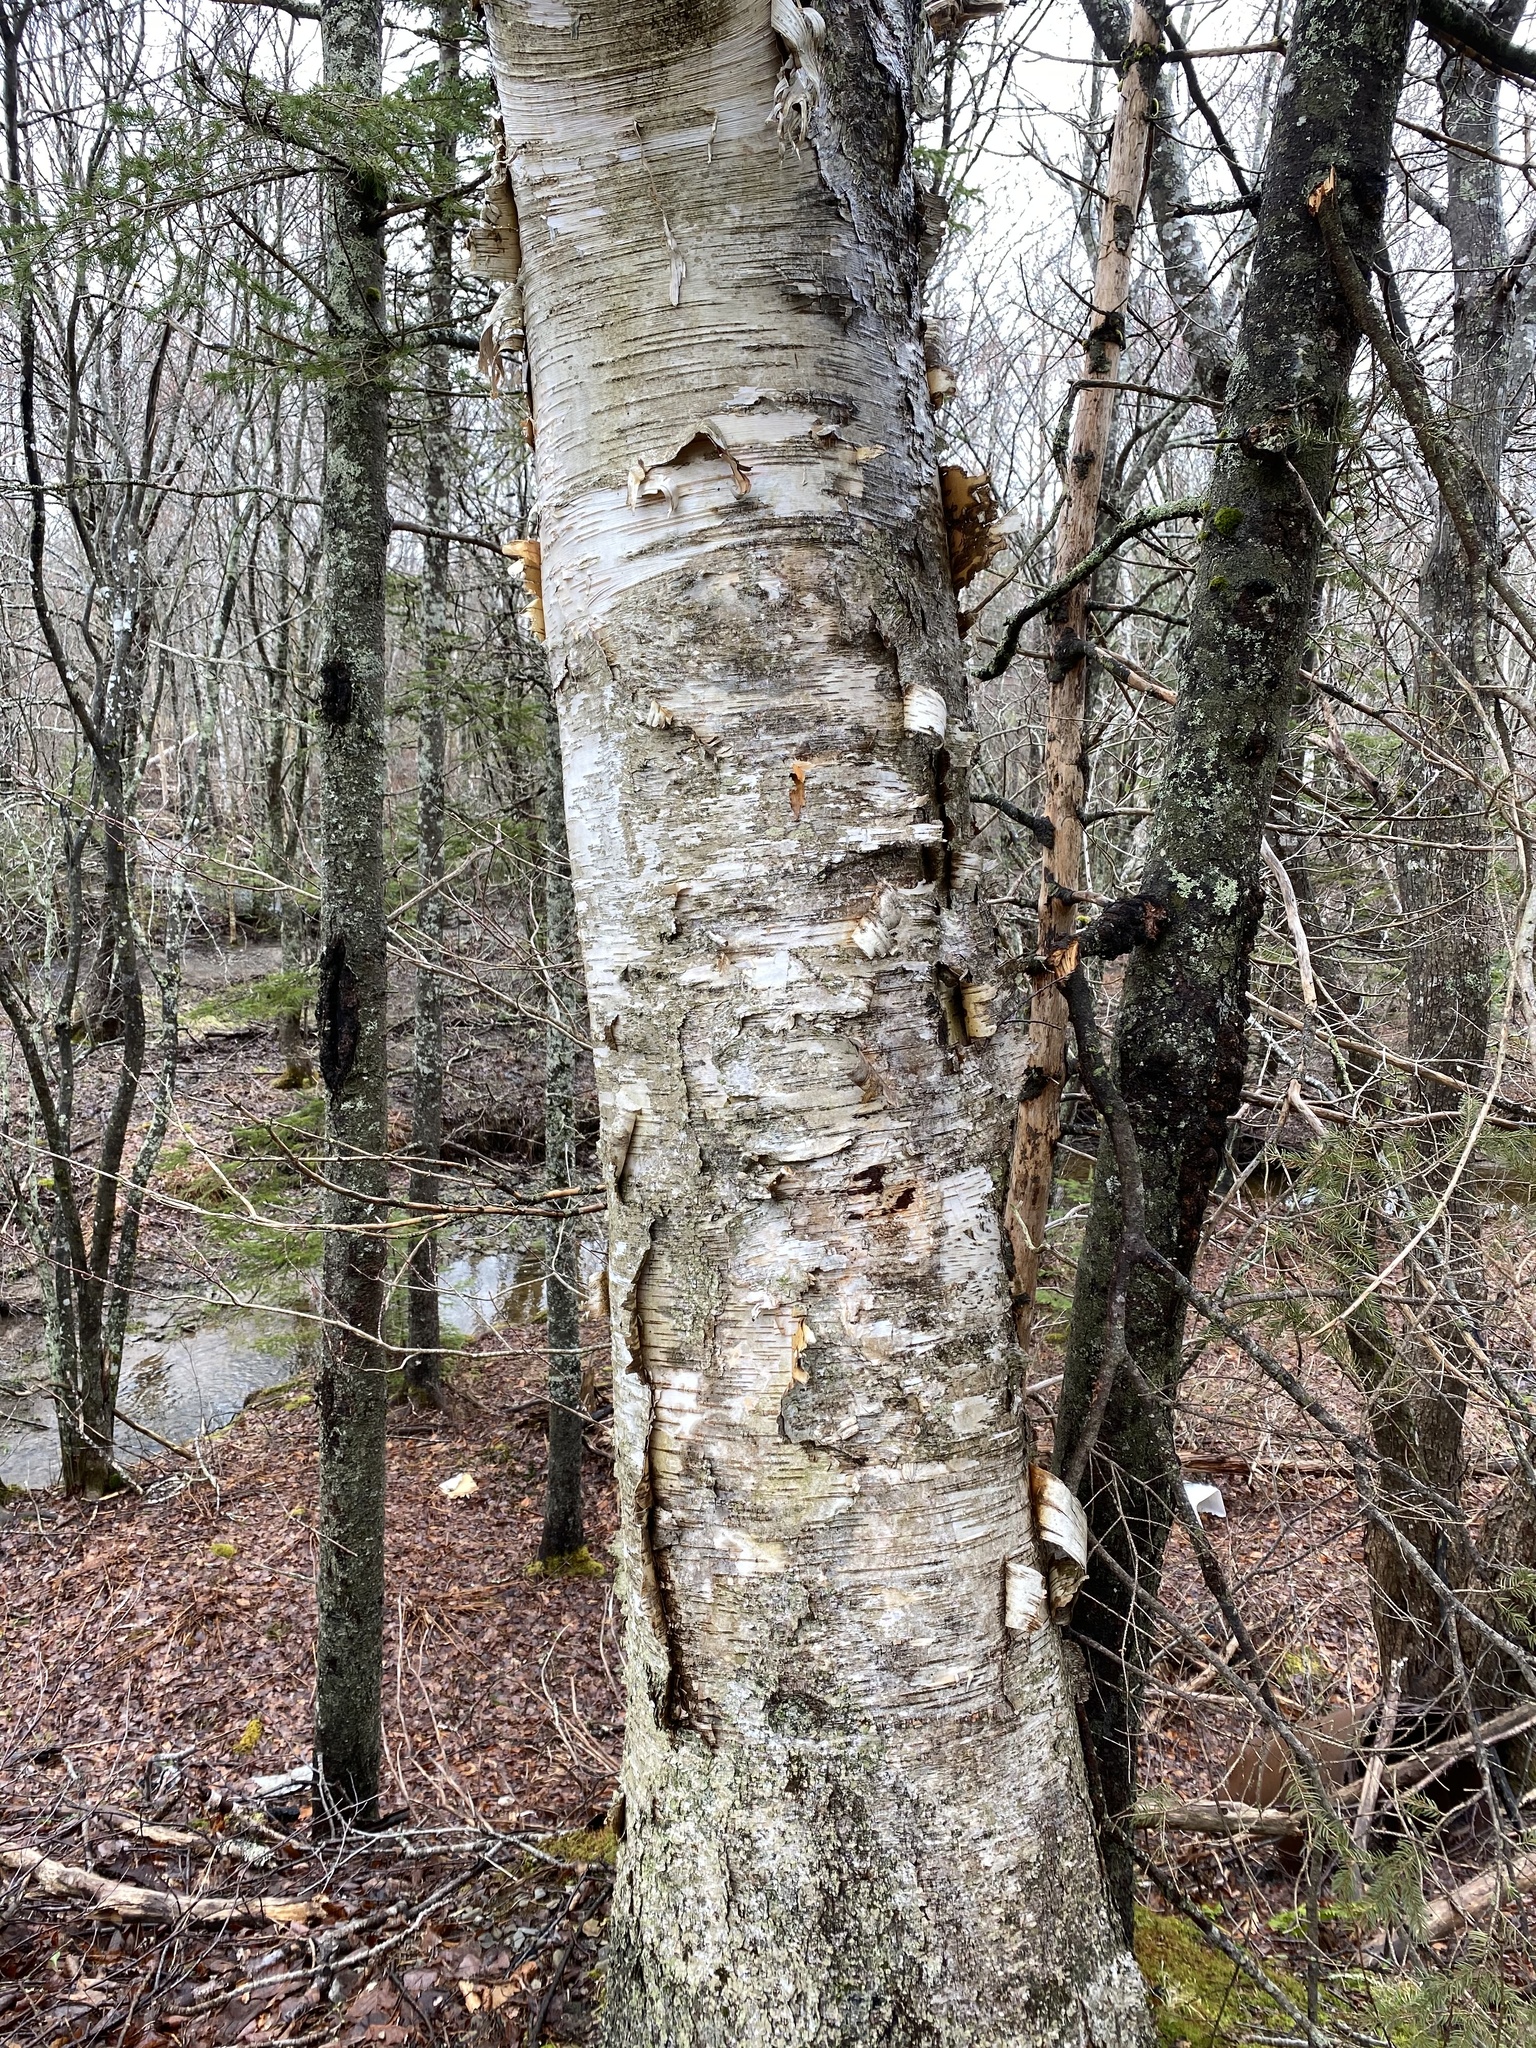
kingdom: Plantae
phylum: Tracheophyta
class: Magnoliopsida
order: Fagales
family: Betulaceae
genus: Betula
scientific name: Betula papyrifera
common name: Paper birch
